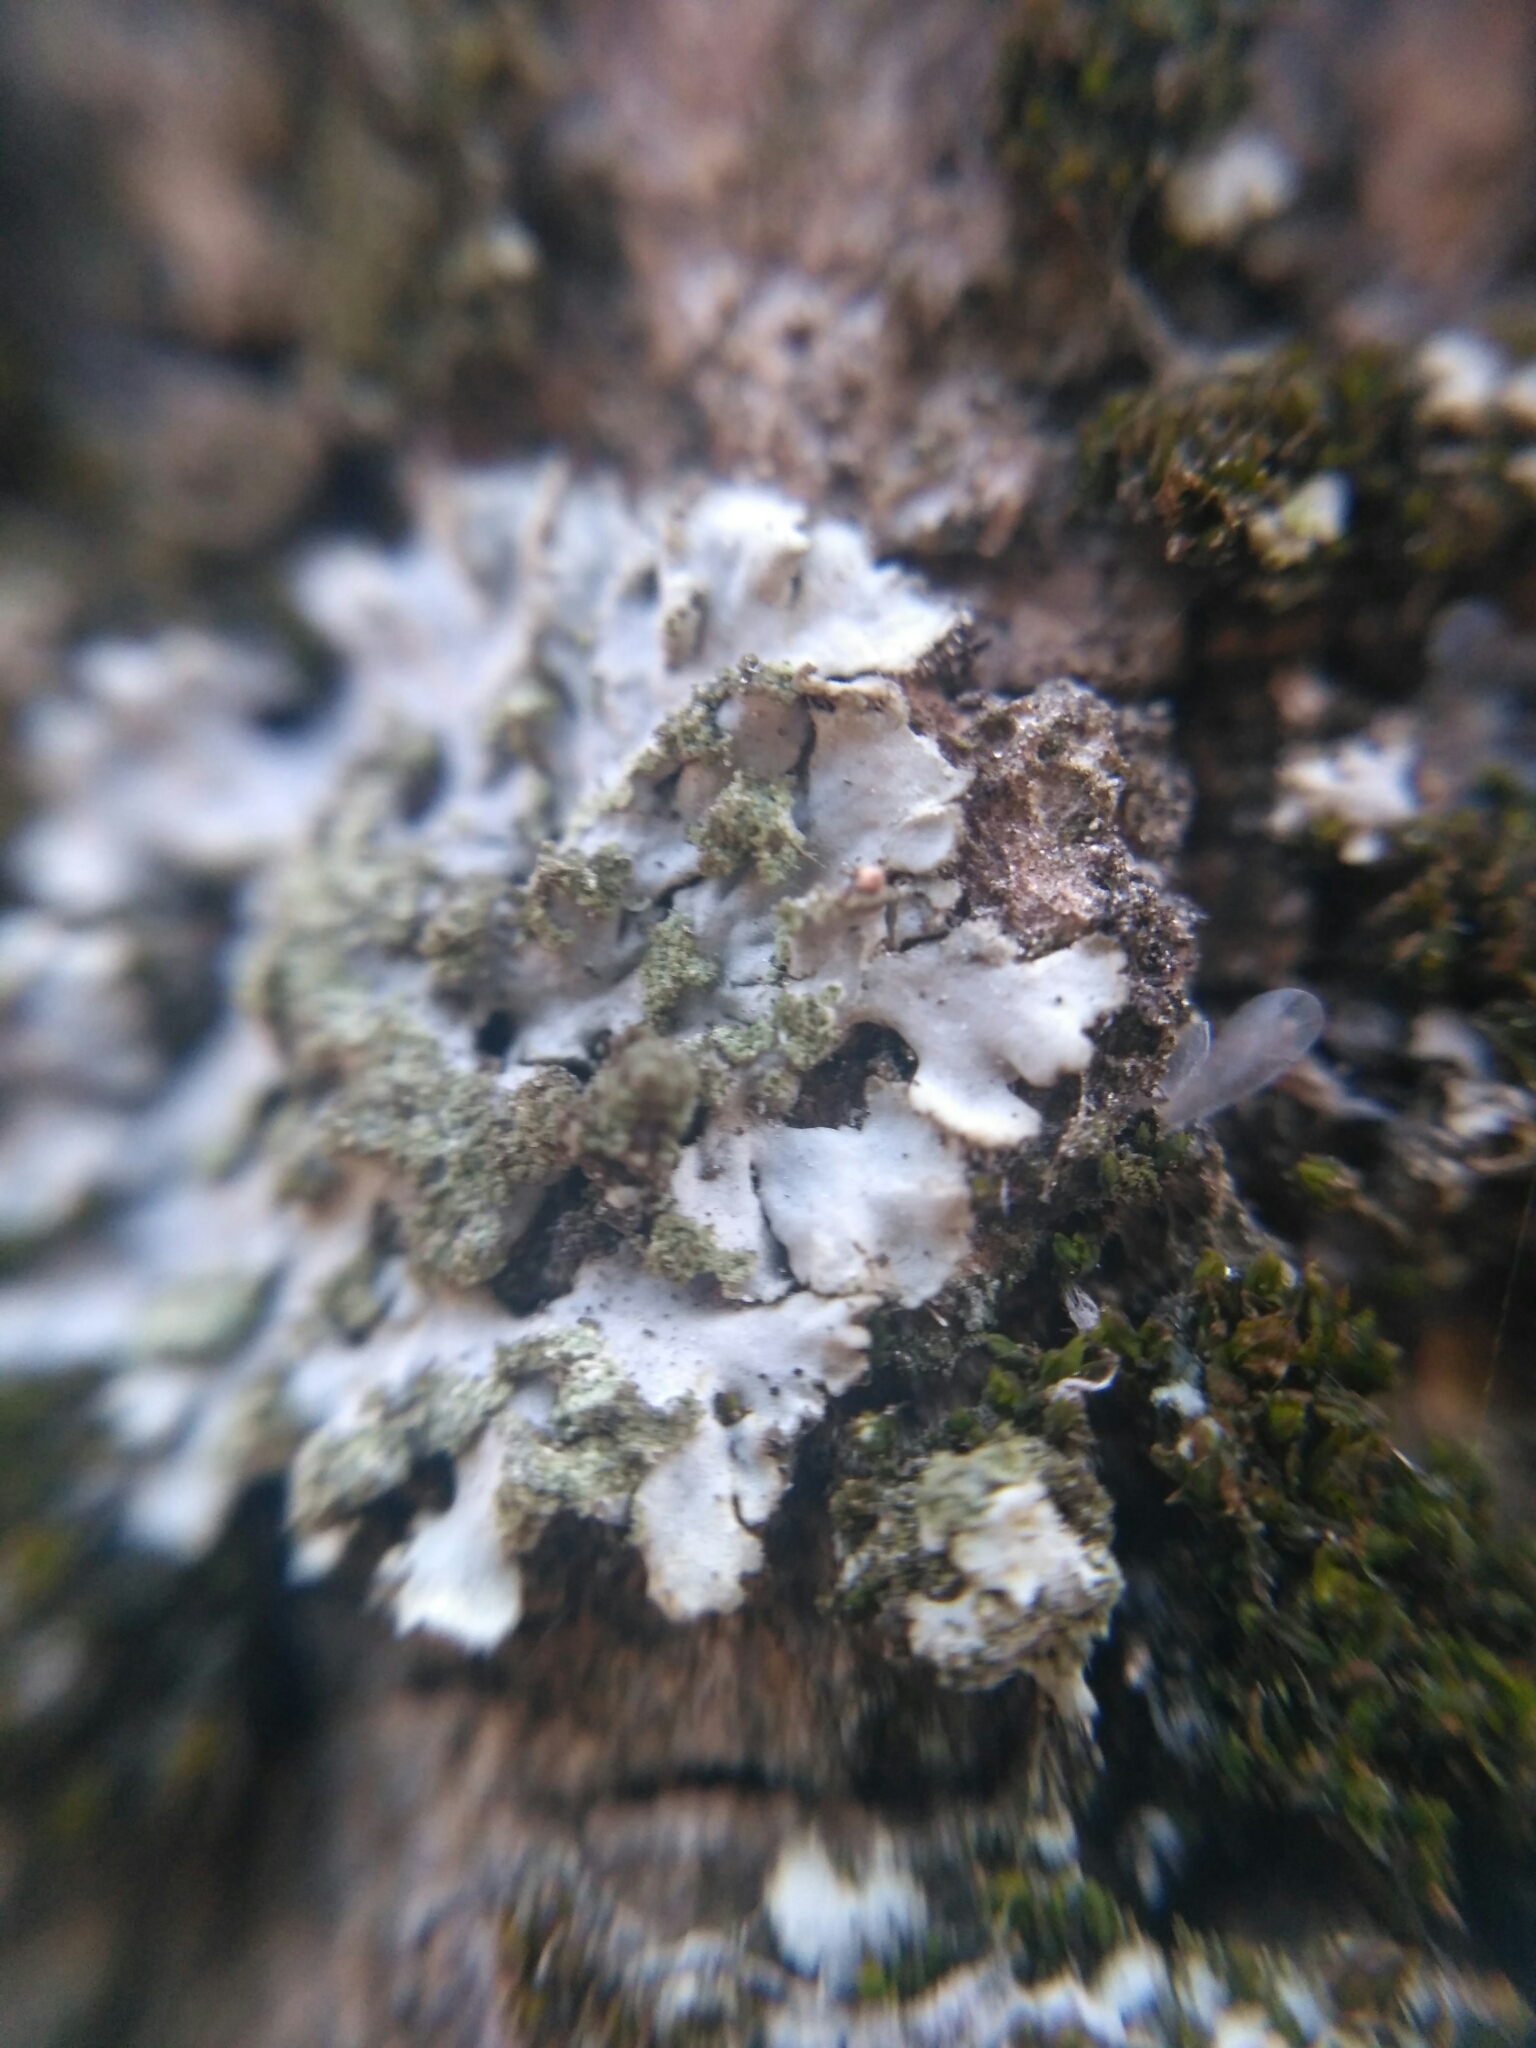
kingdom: Fungi
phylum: Ascomycota
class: Lecanoromycetes
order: Caliciales
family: Physciaceae
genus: Phaeophyscia
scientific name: Phaeophyscia orbicularis
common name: Mealy shadow lichen
